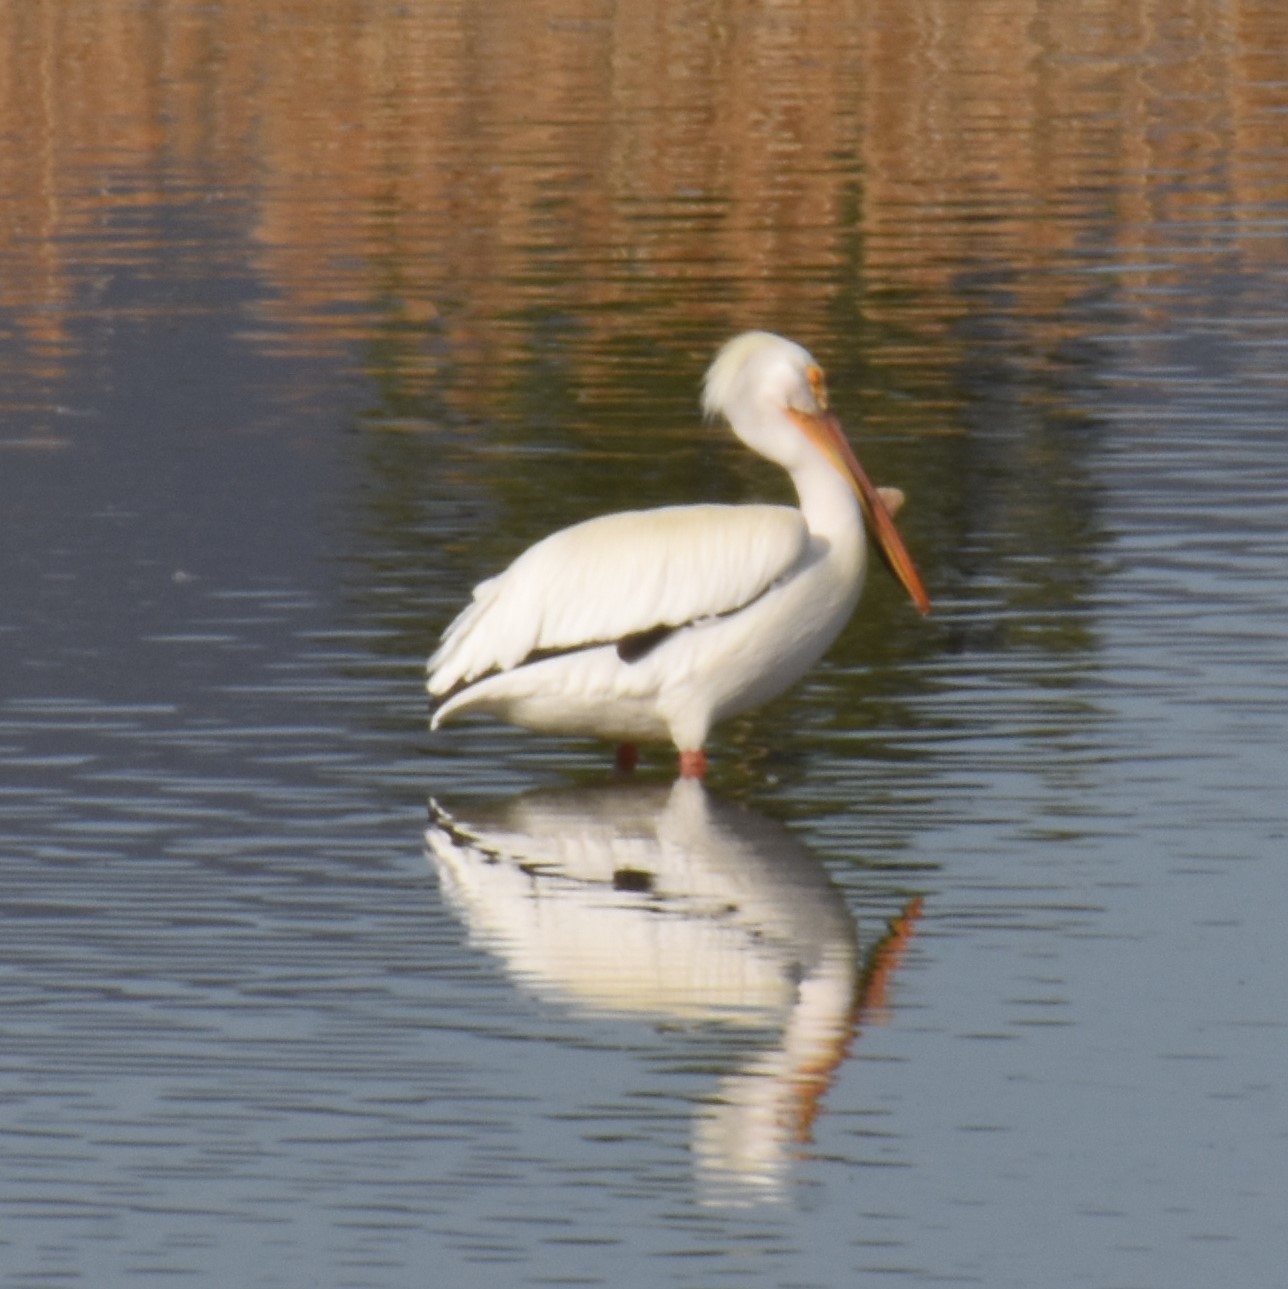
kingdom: Animalia
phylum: Chordata
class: Aves
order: Pelecaniformes
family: Pelecanidae
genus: Pelecanus
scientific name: Pelecanus erythrorhynchos
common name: American white pelican
